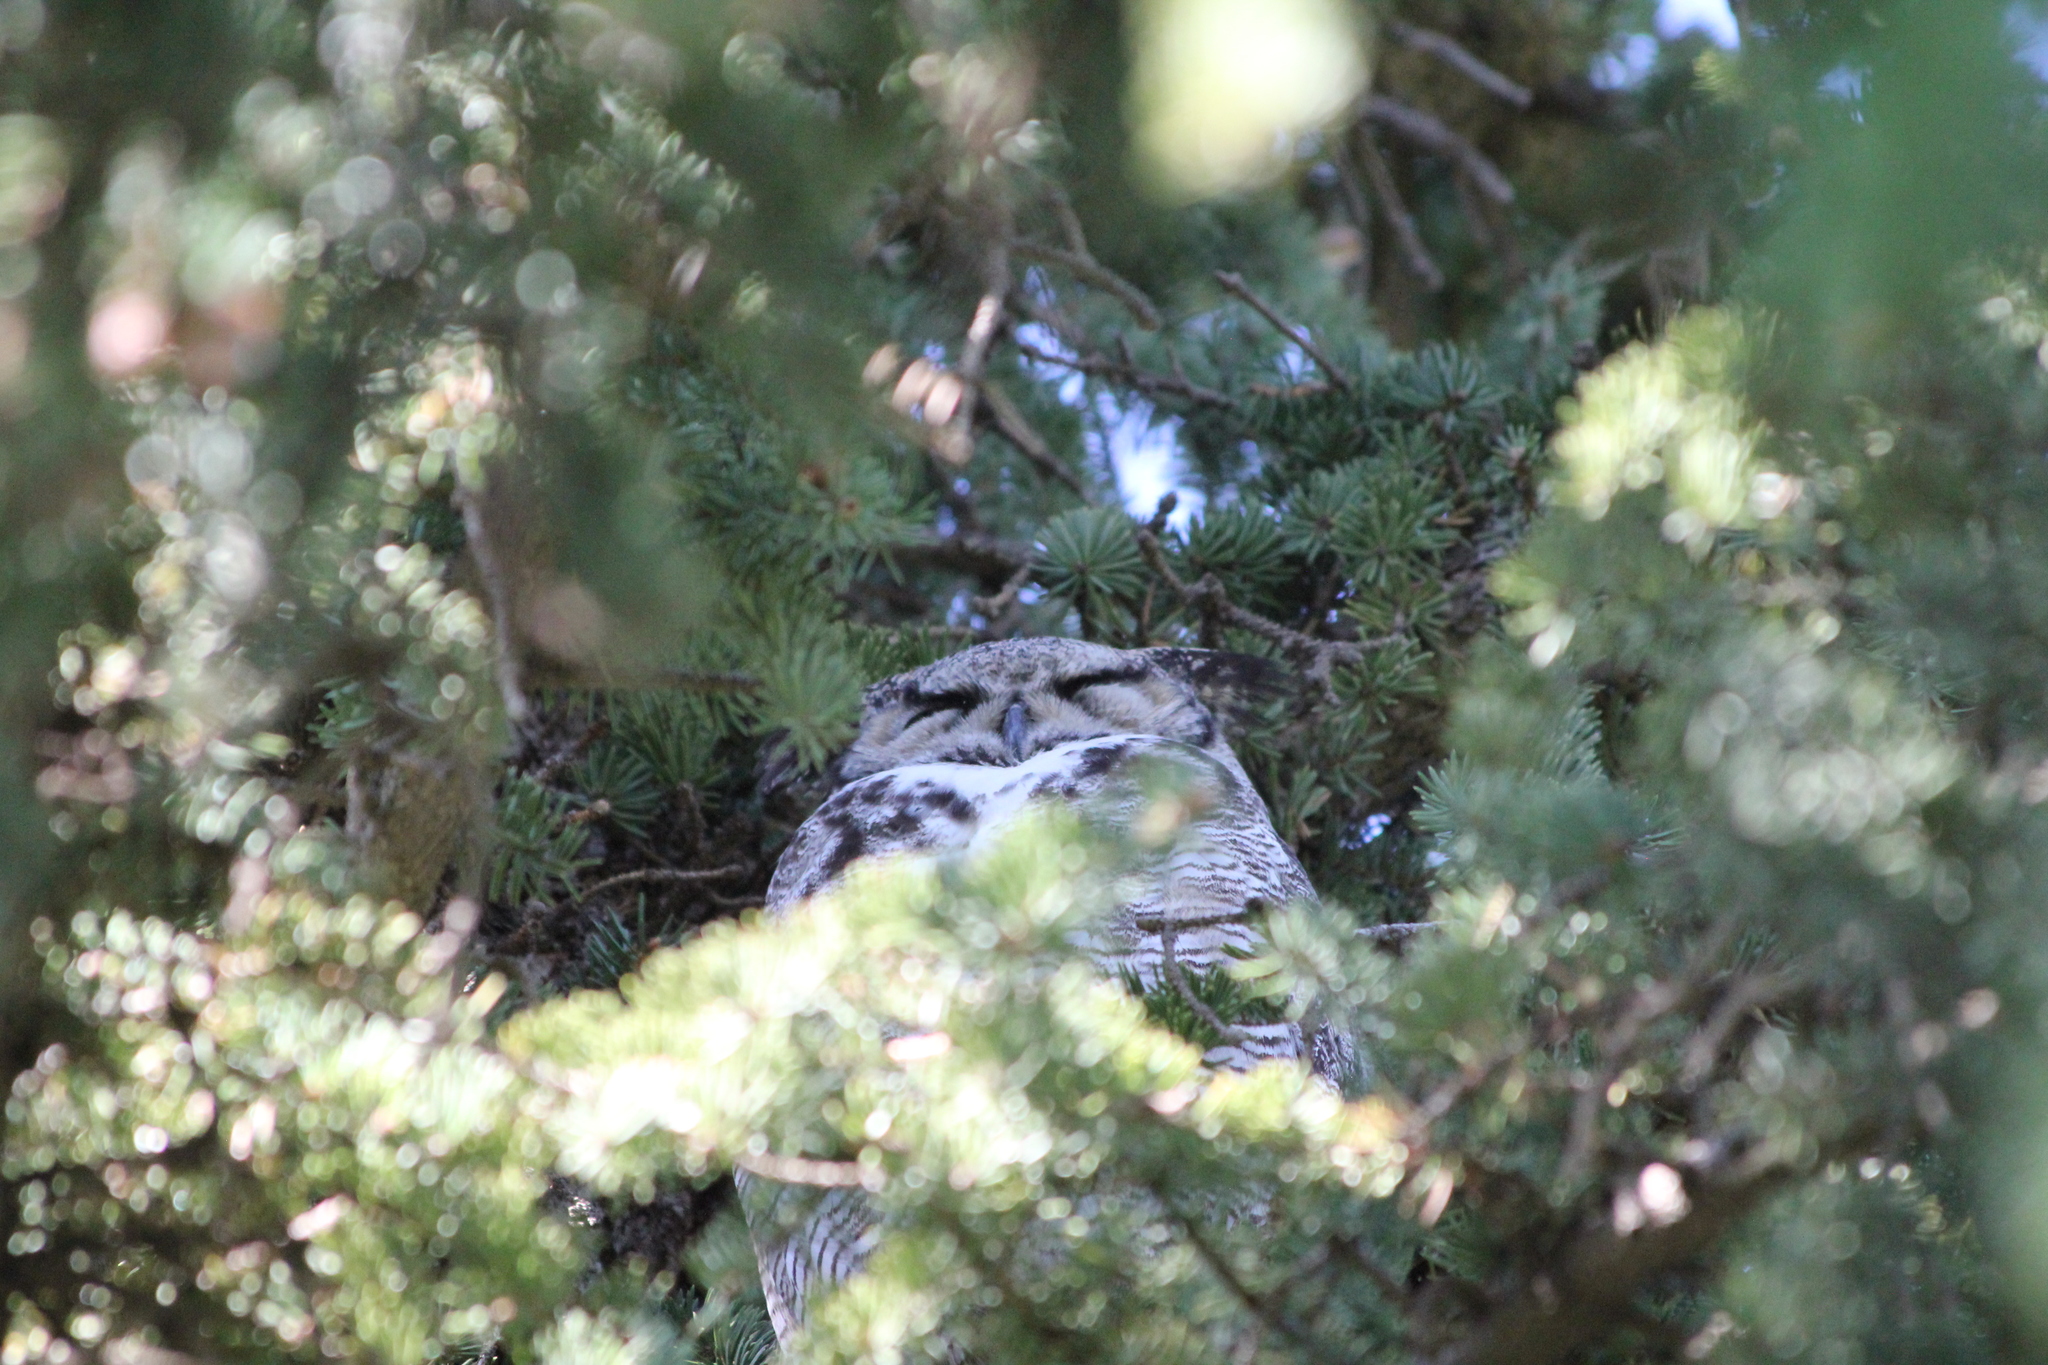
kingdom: Animalia
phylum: Chordata
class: Aves
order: Strigiformes
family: Strigidae
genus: Bubo
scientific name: Bubo virginianus
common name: Great horned owl
